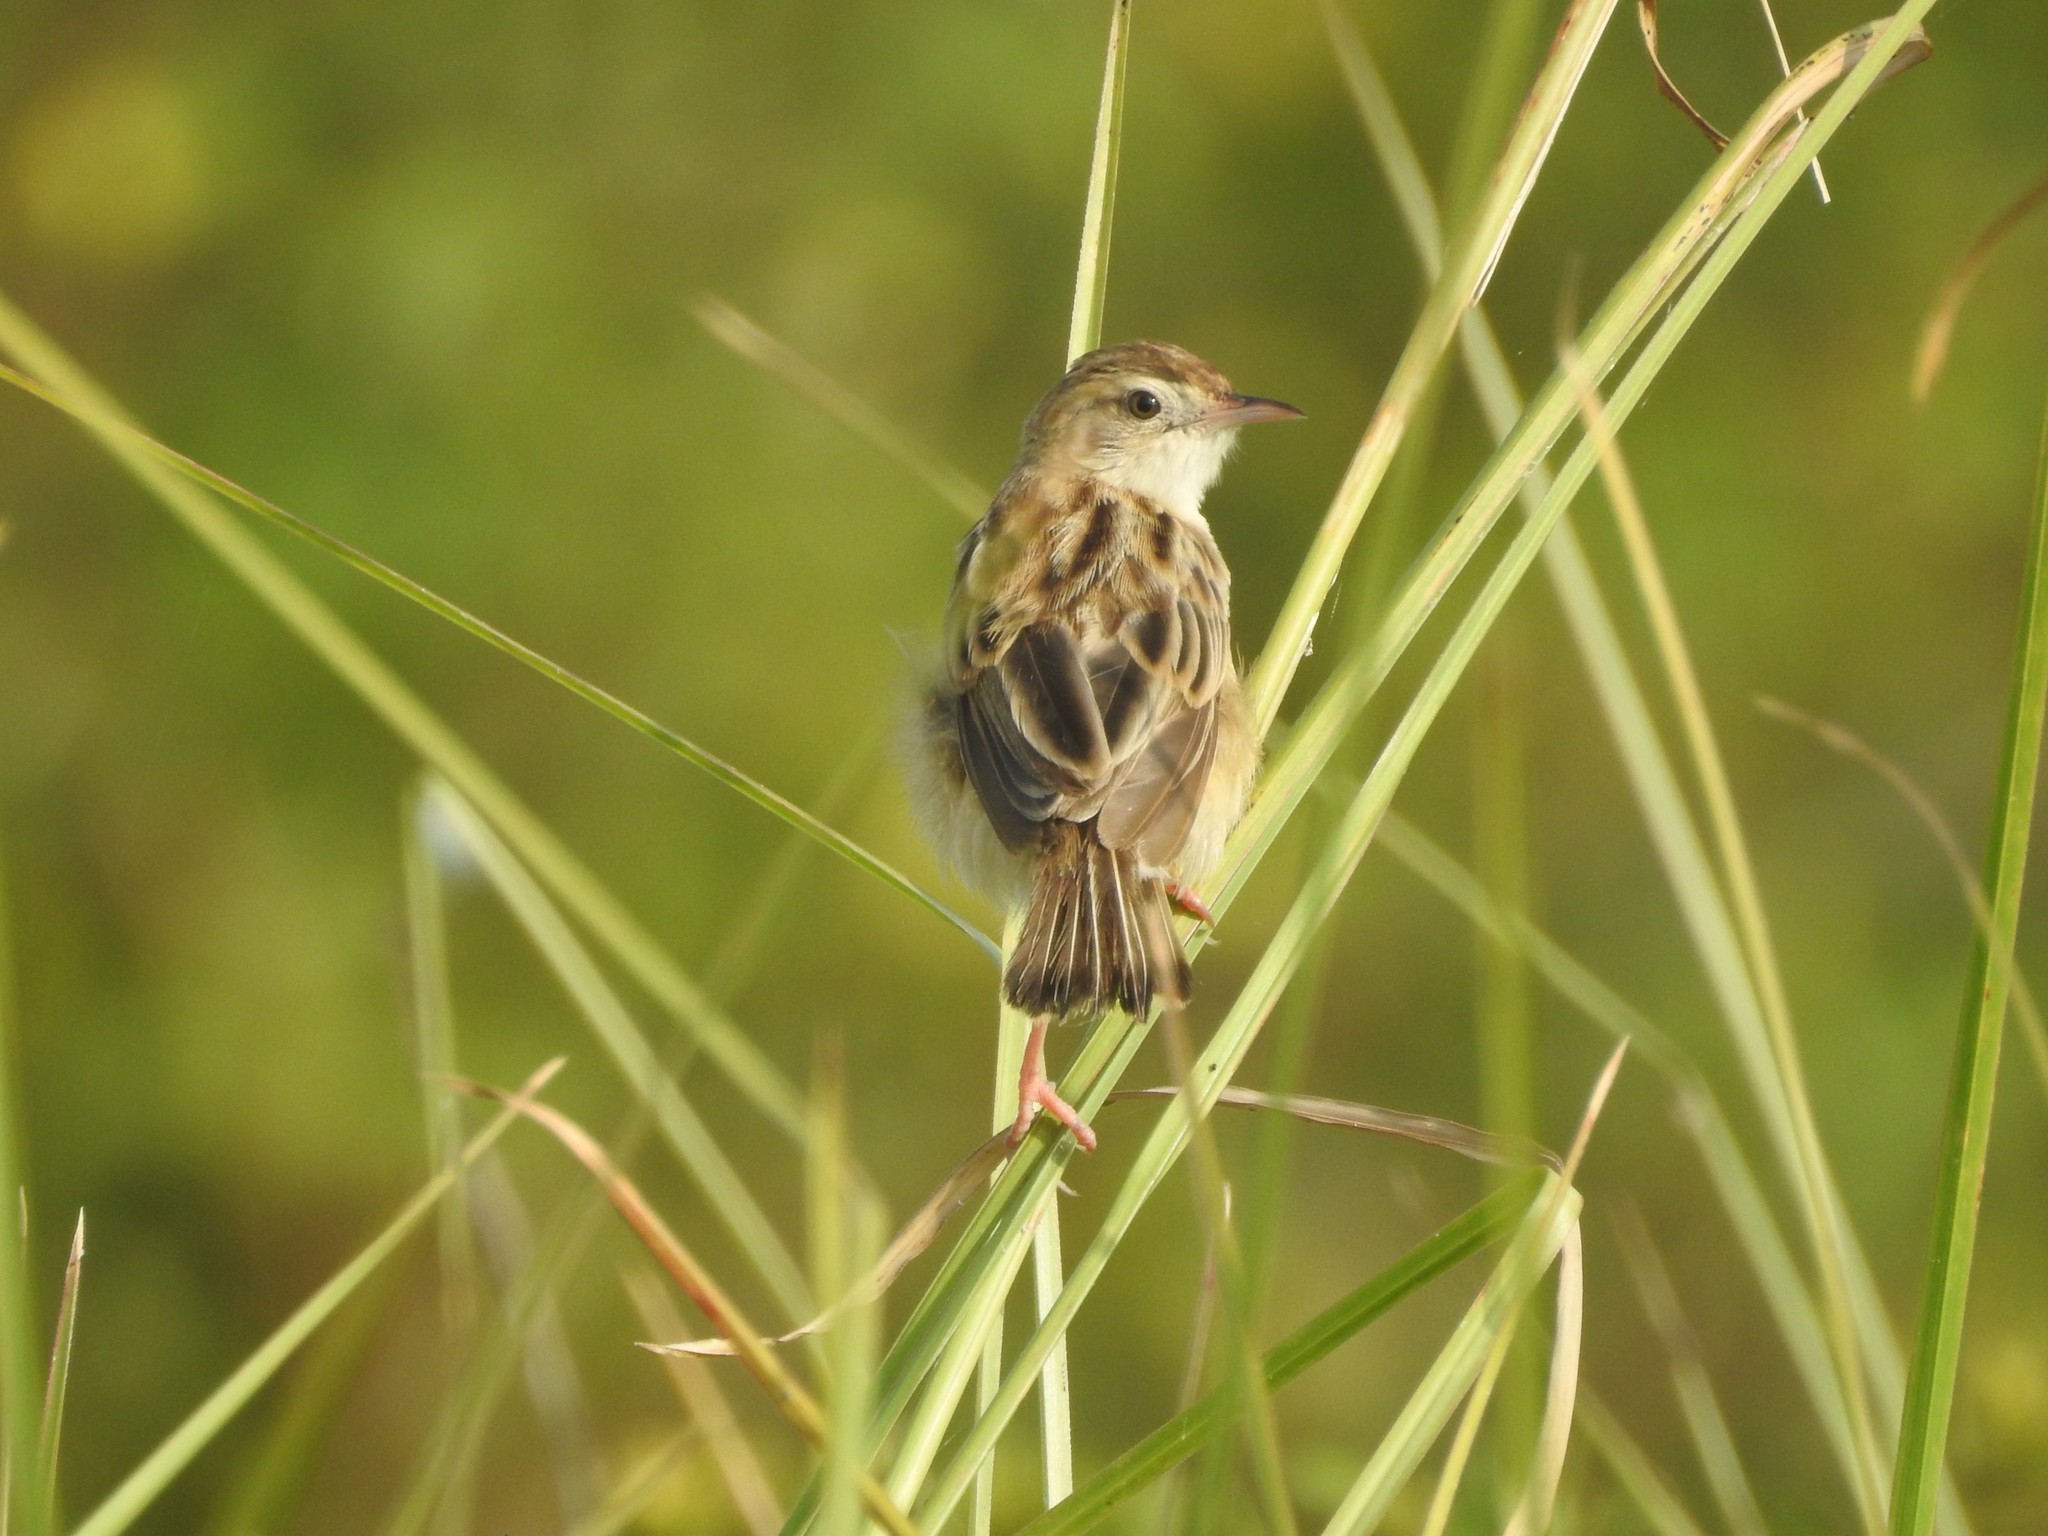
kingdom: Animalia
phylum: Chordata
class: Aves
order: Passeriformes
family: Cisticolidae
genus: Cisticola
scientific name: Cisticola juncidis
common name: Zitting cisticola
